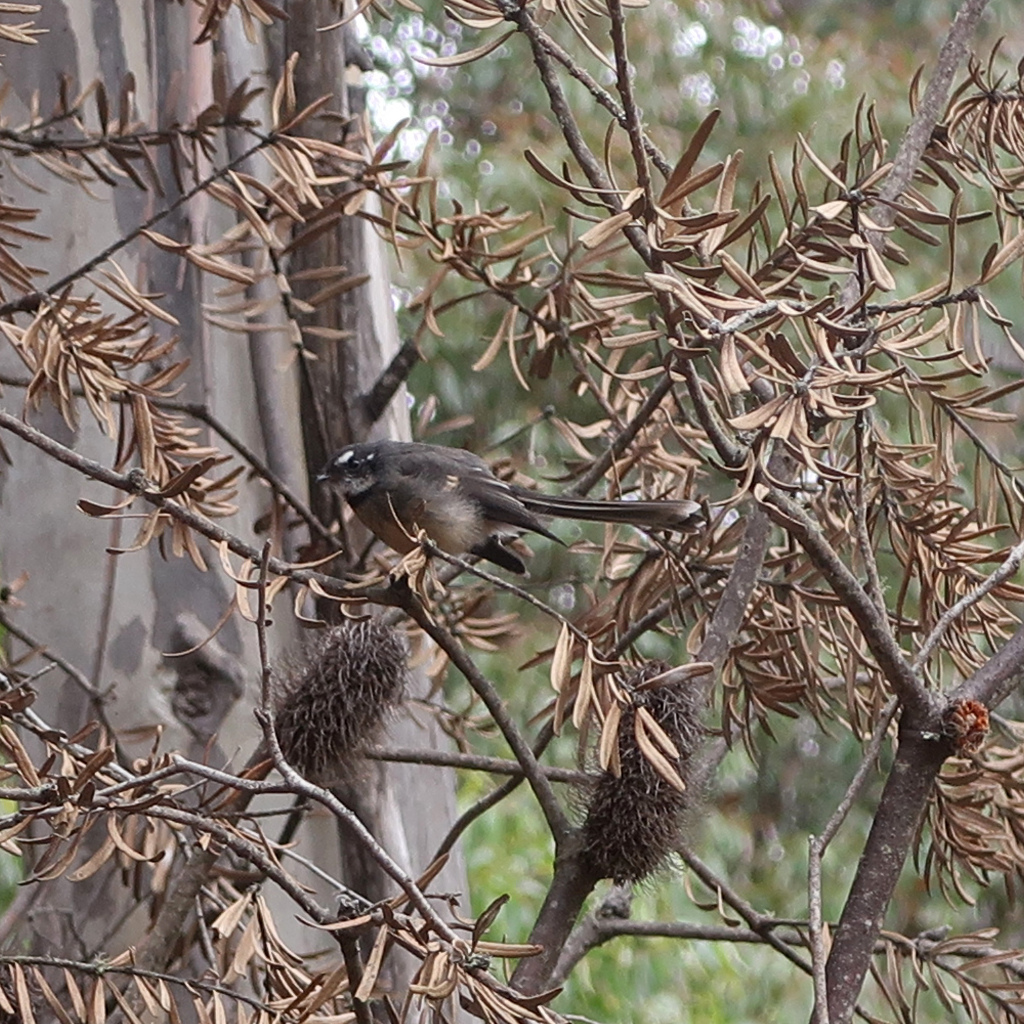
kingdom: Animalia
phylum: Chordata
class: Aves
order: Passeriformes
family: Rhipiduridae
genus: Rhipidura
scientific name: Rhipidura albiscapa
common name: Grey fantail
